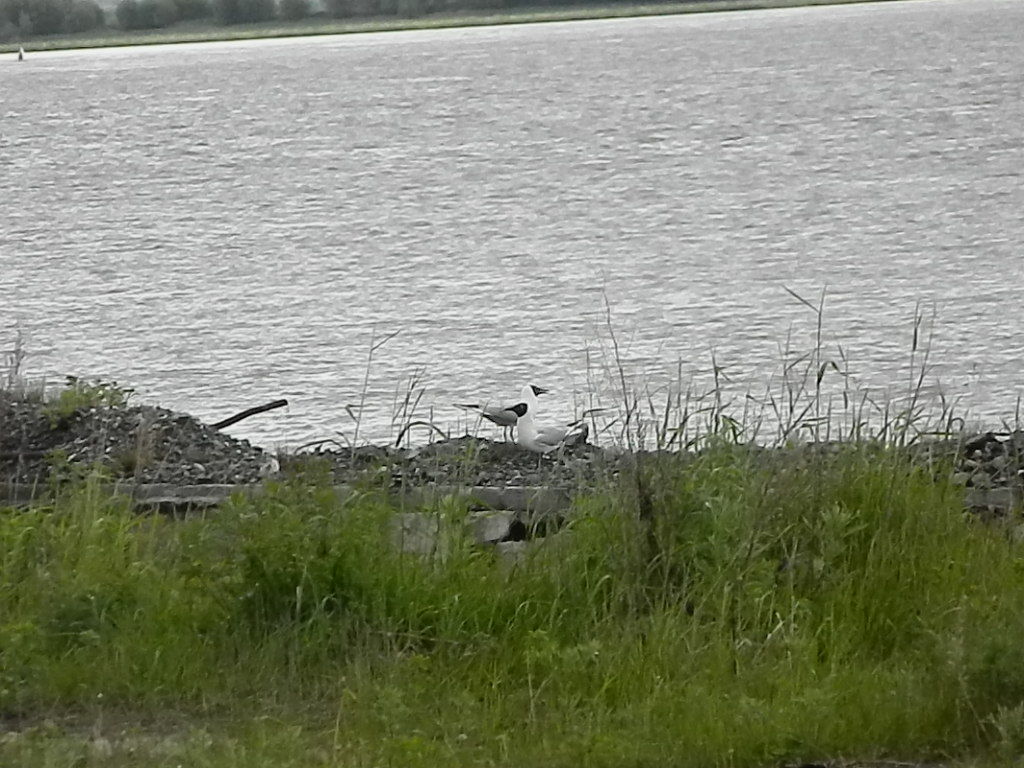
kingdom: Animalia
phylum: Chordata
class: Aves
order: Charadriiformes
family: Laridae
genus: Chroicocephalus
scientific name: Chroicocephalus ridibundus
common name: Black-headed gull
